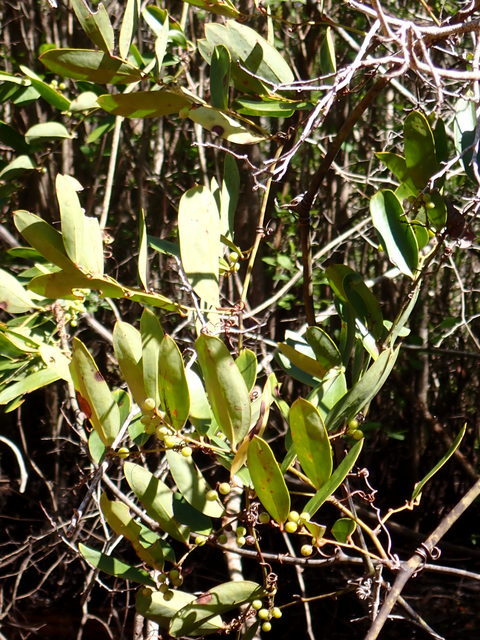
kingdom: Plantae
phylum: Tracheophyta
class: Liliopsida
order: Liliales
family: Smilacaceae
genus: Smilax
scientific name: Smilax laurifolia
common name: Bamboovine
